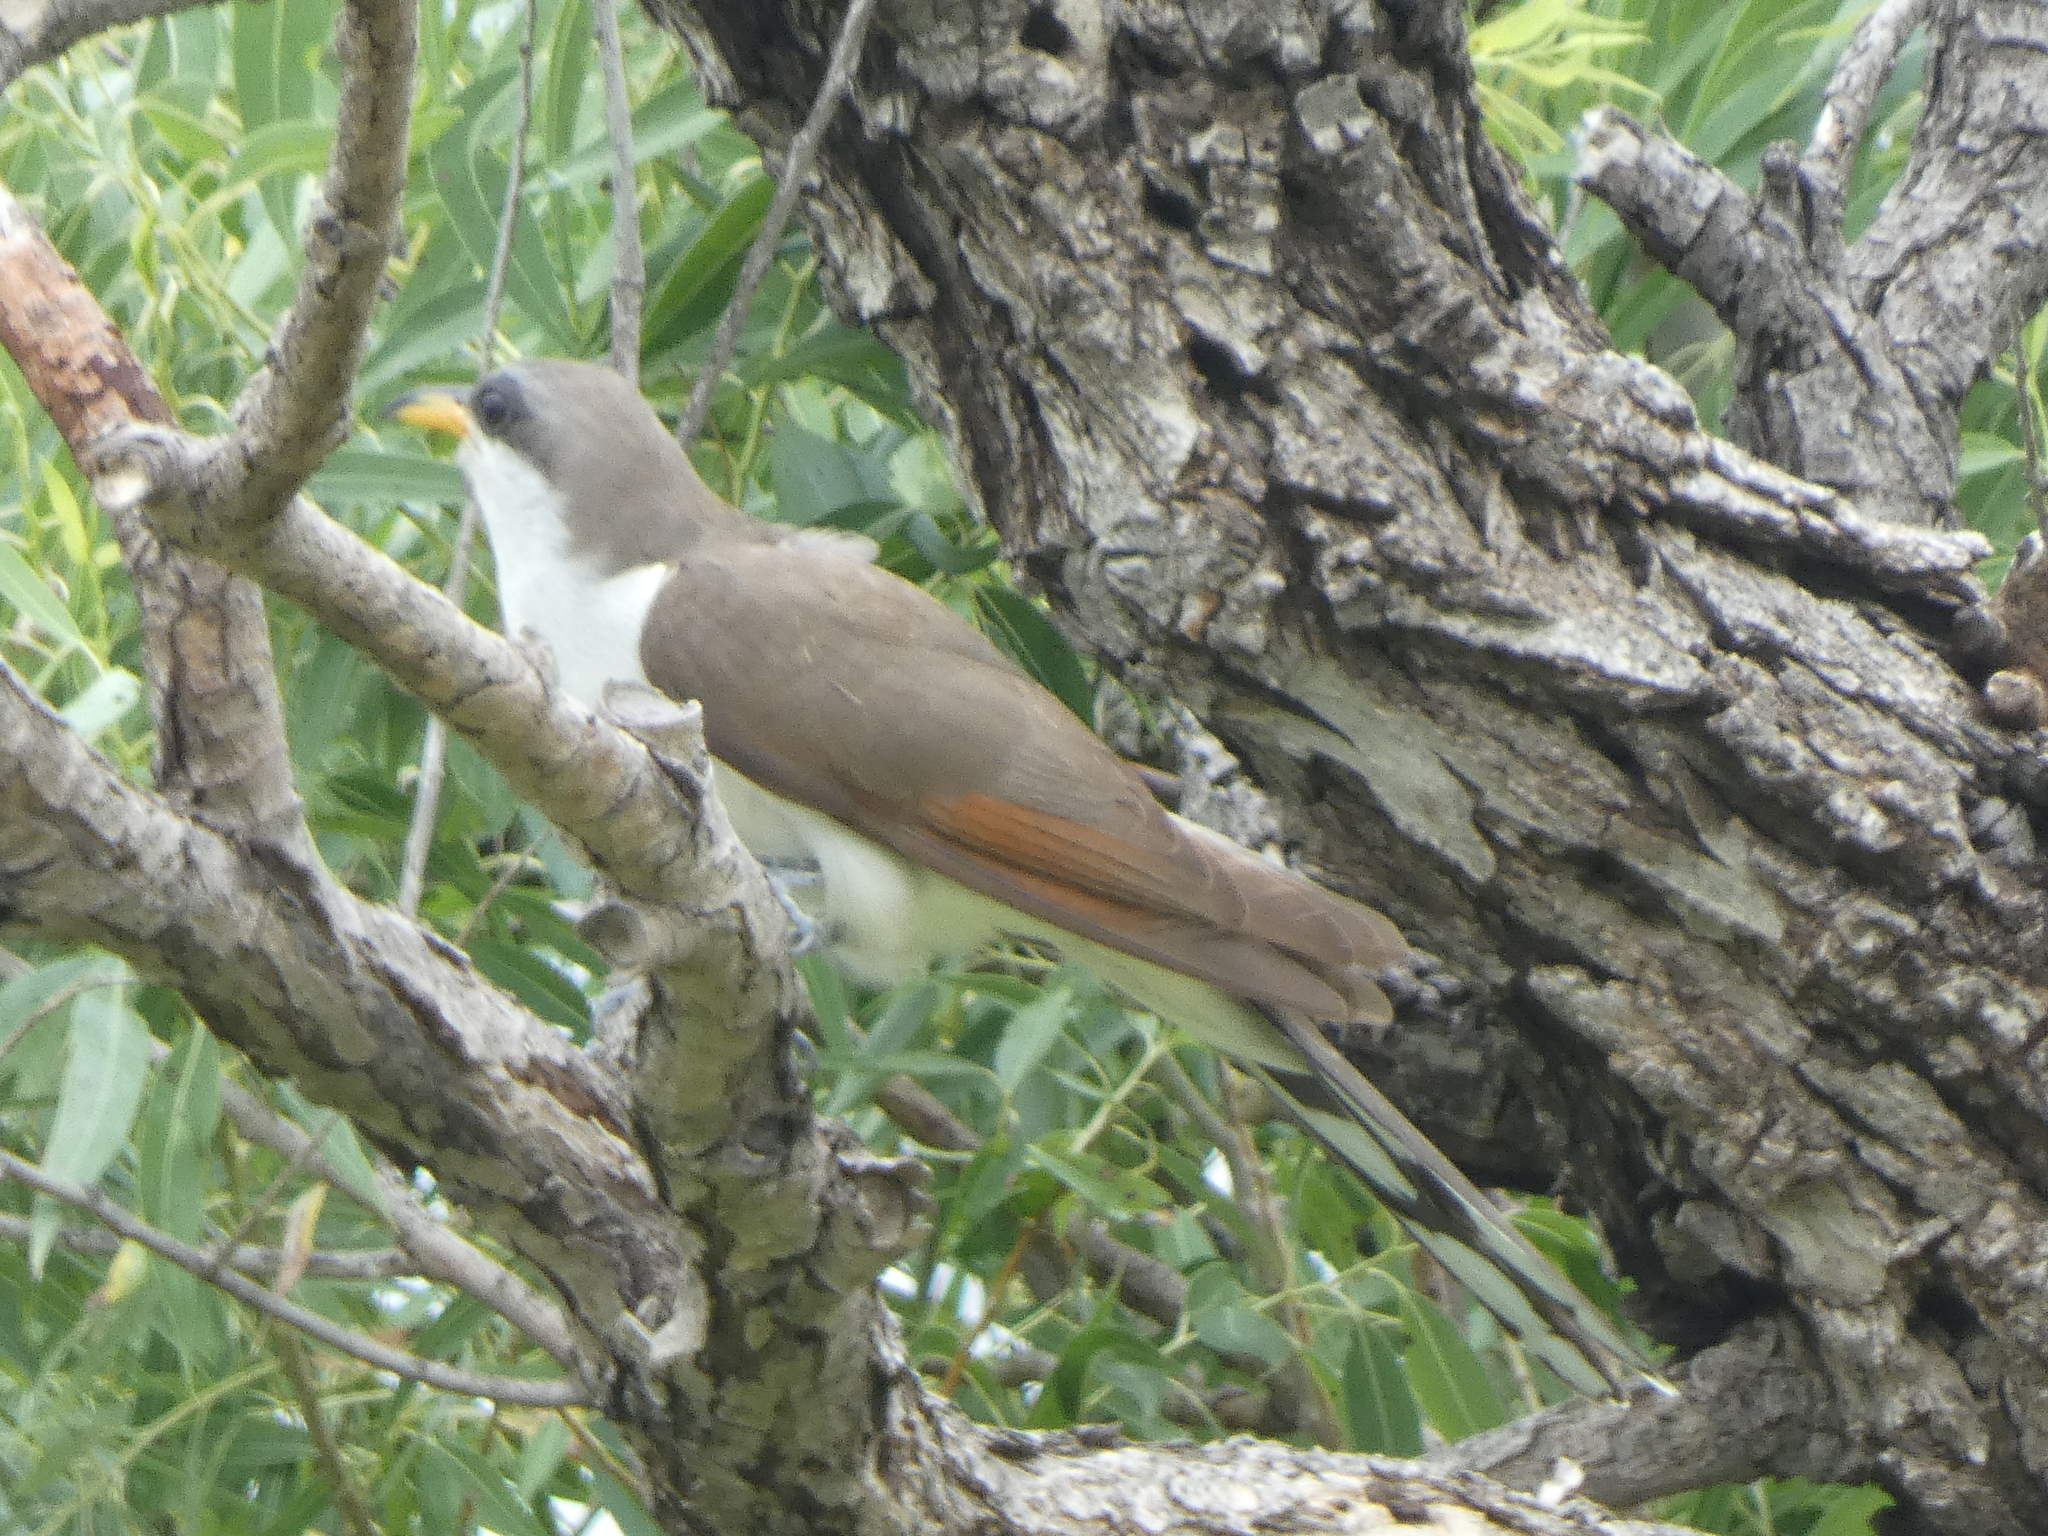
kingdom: Animalia
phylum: Chordata
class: Aves
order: Cuculiformes
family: Cuculidae
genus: Coccyzus
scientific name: Coccyzus americanus
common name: Yellow-billed cuckoo
